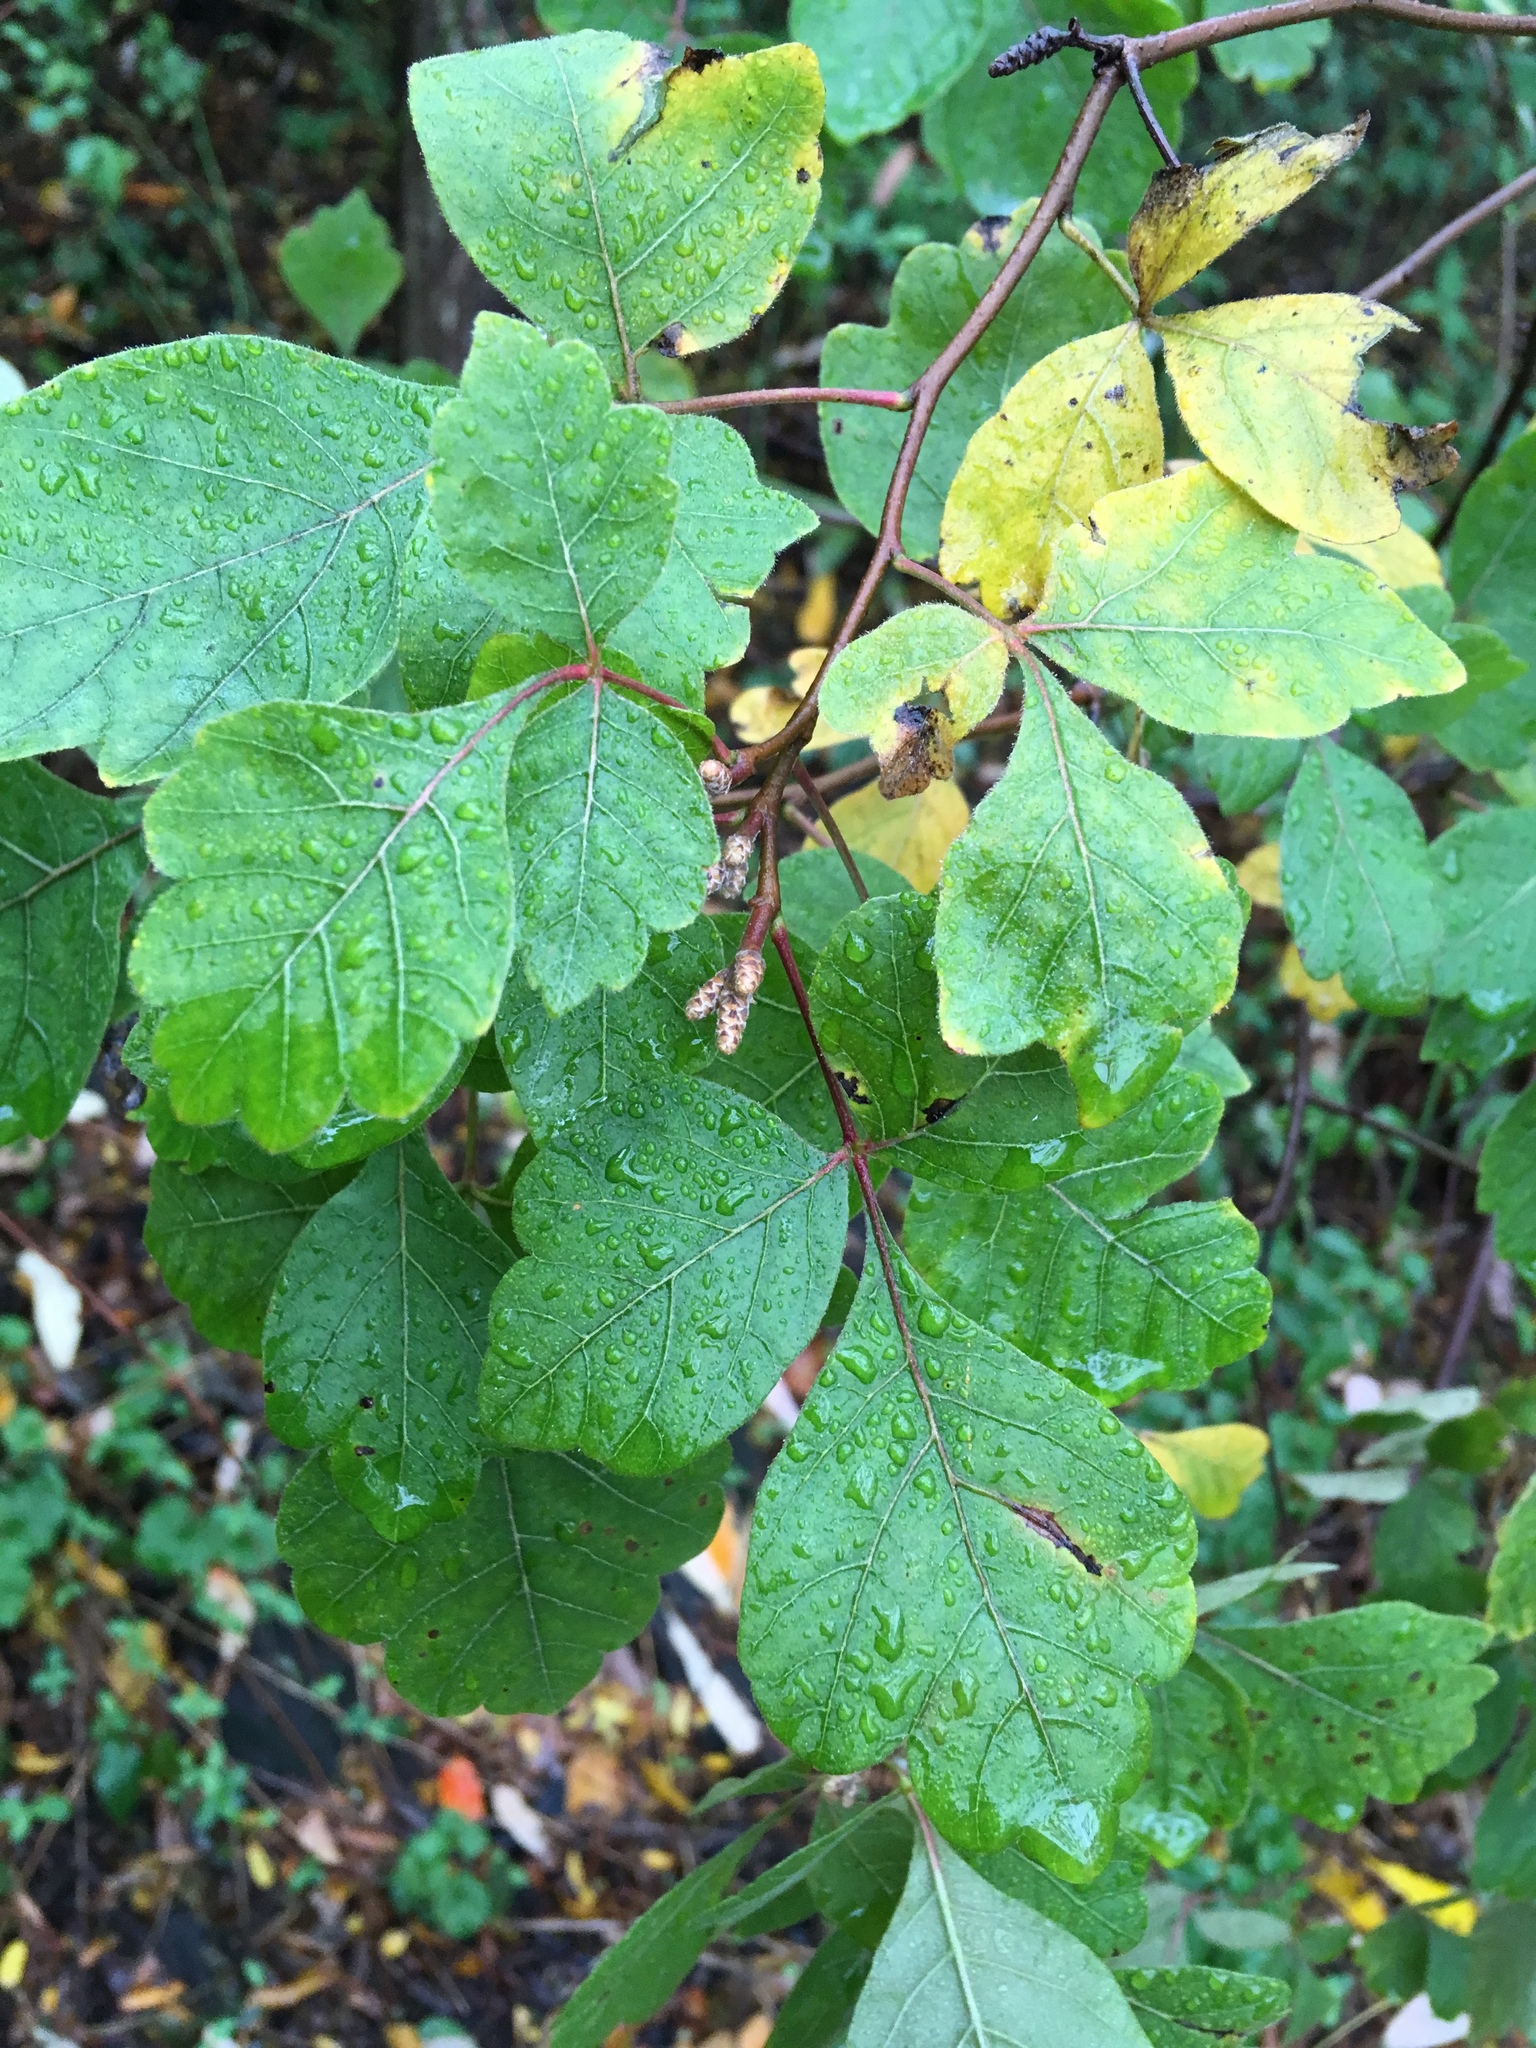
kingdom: Plantae
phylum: Tracheophyta
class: Magnoliopsida
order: Sapindales
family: Anacardiaceae
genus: Rhus
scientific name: Rhus aromatica
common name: Aromatic sumac
